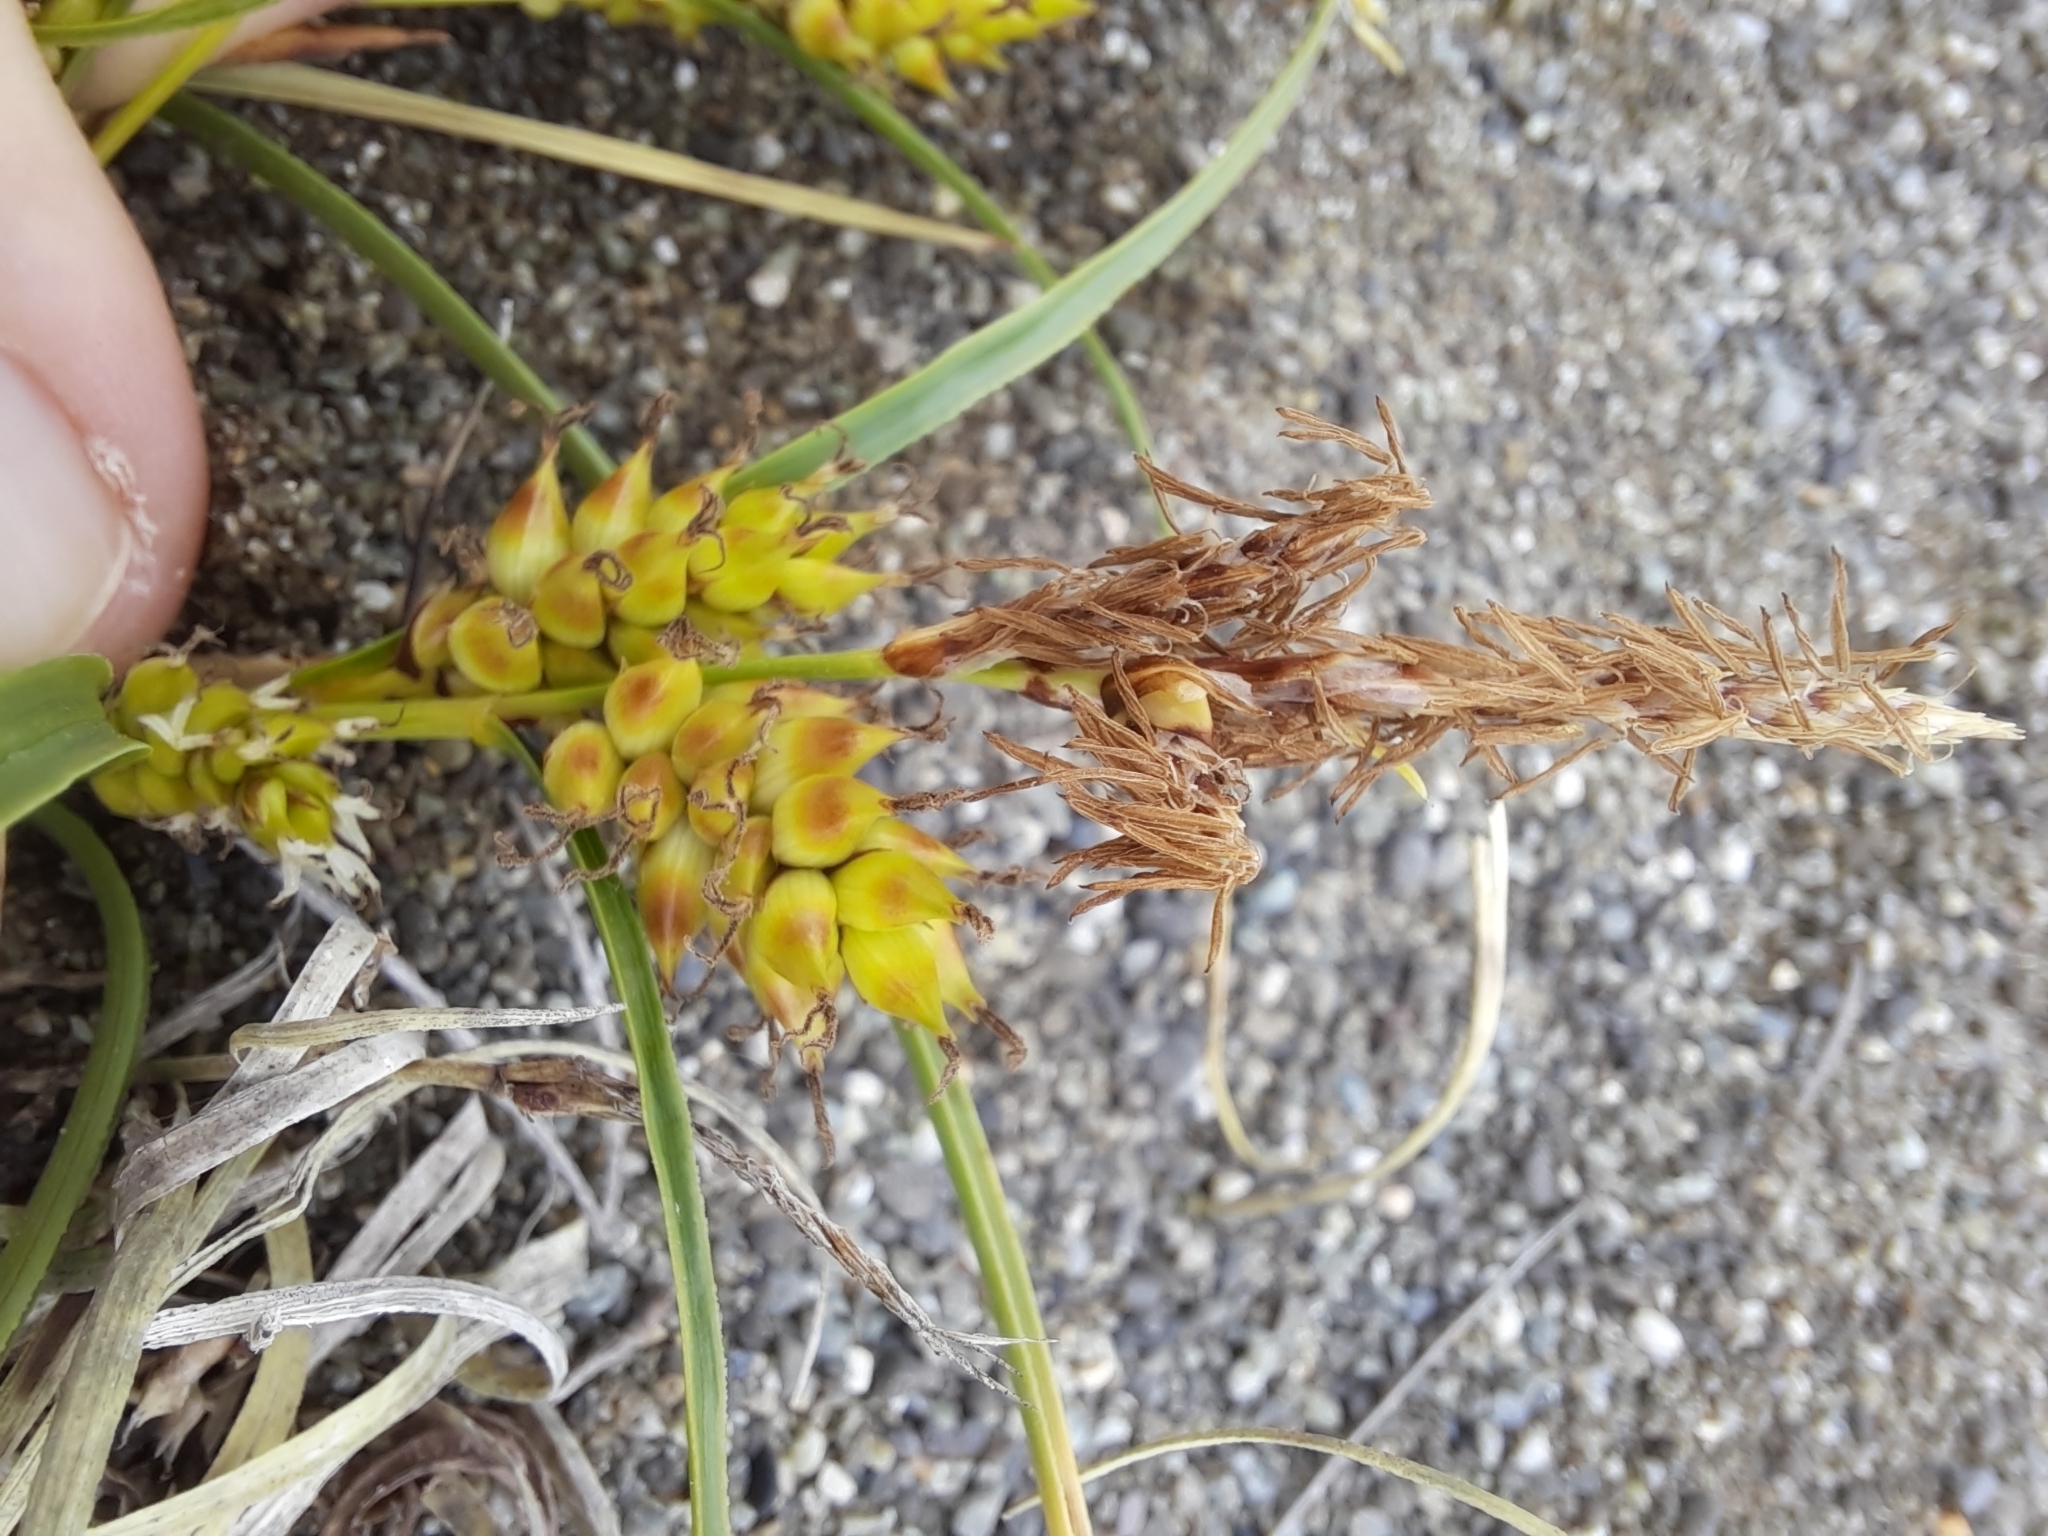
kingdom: Plantae
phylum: Tracheophyta
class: Liliopsida
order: Poales
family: Cyperaceae
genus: Carex
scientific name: Carex pumila
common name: Dwarf sedge
